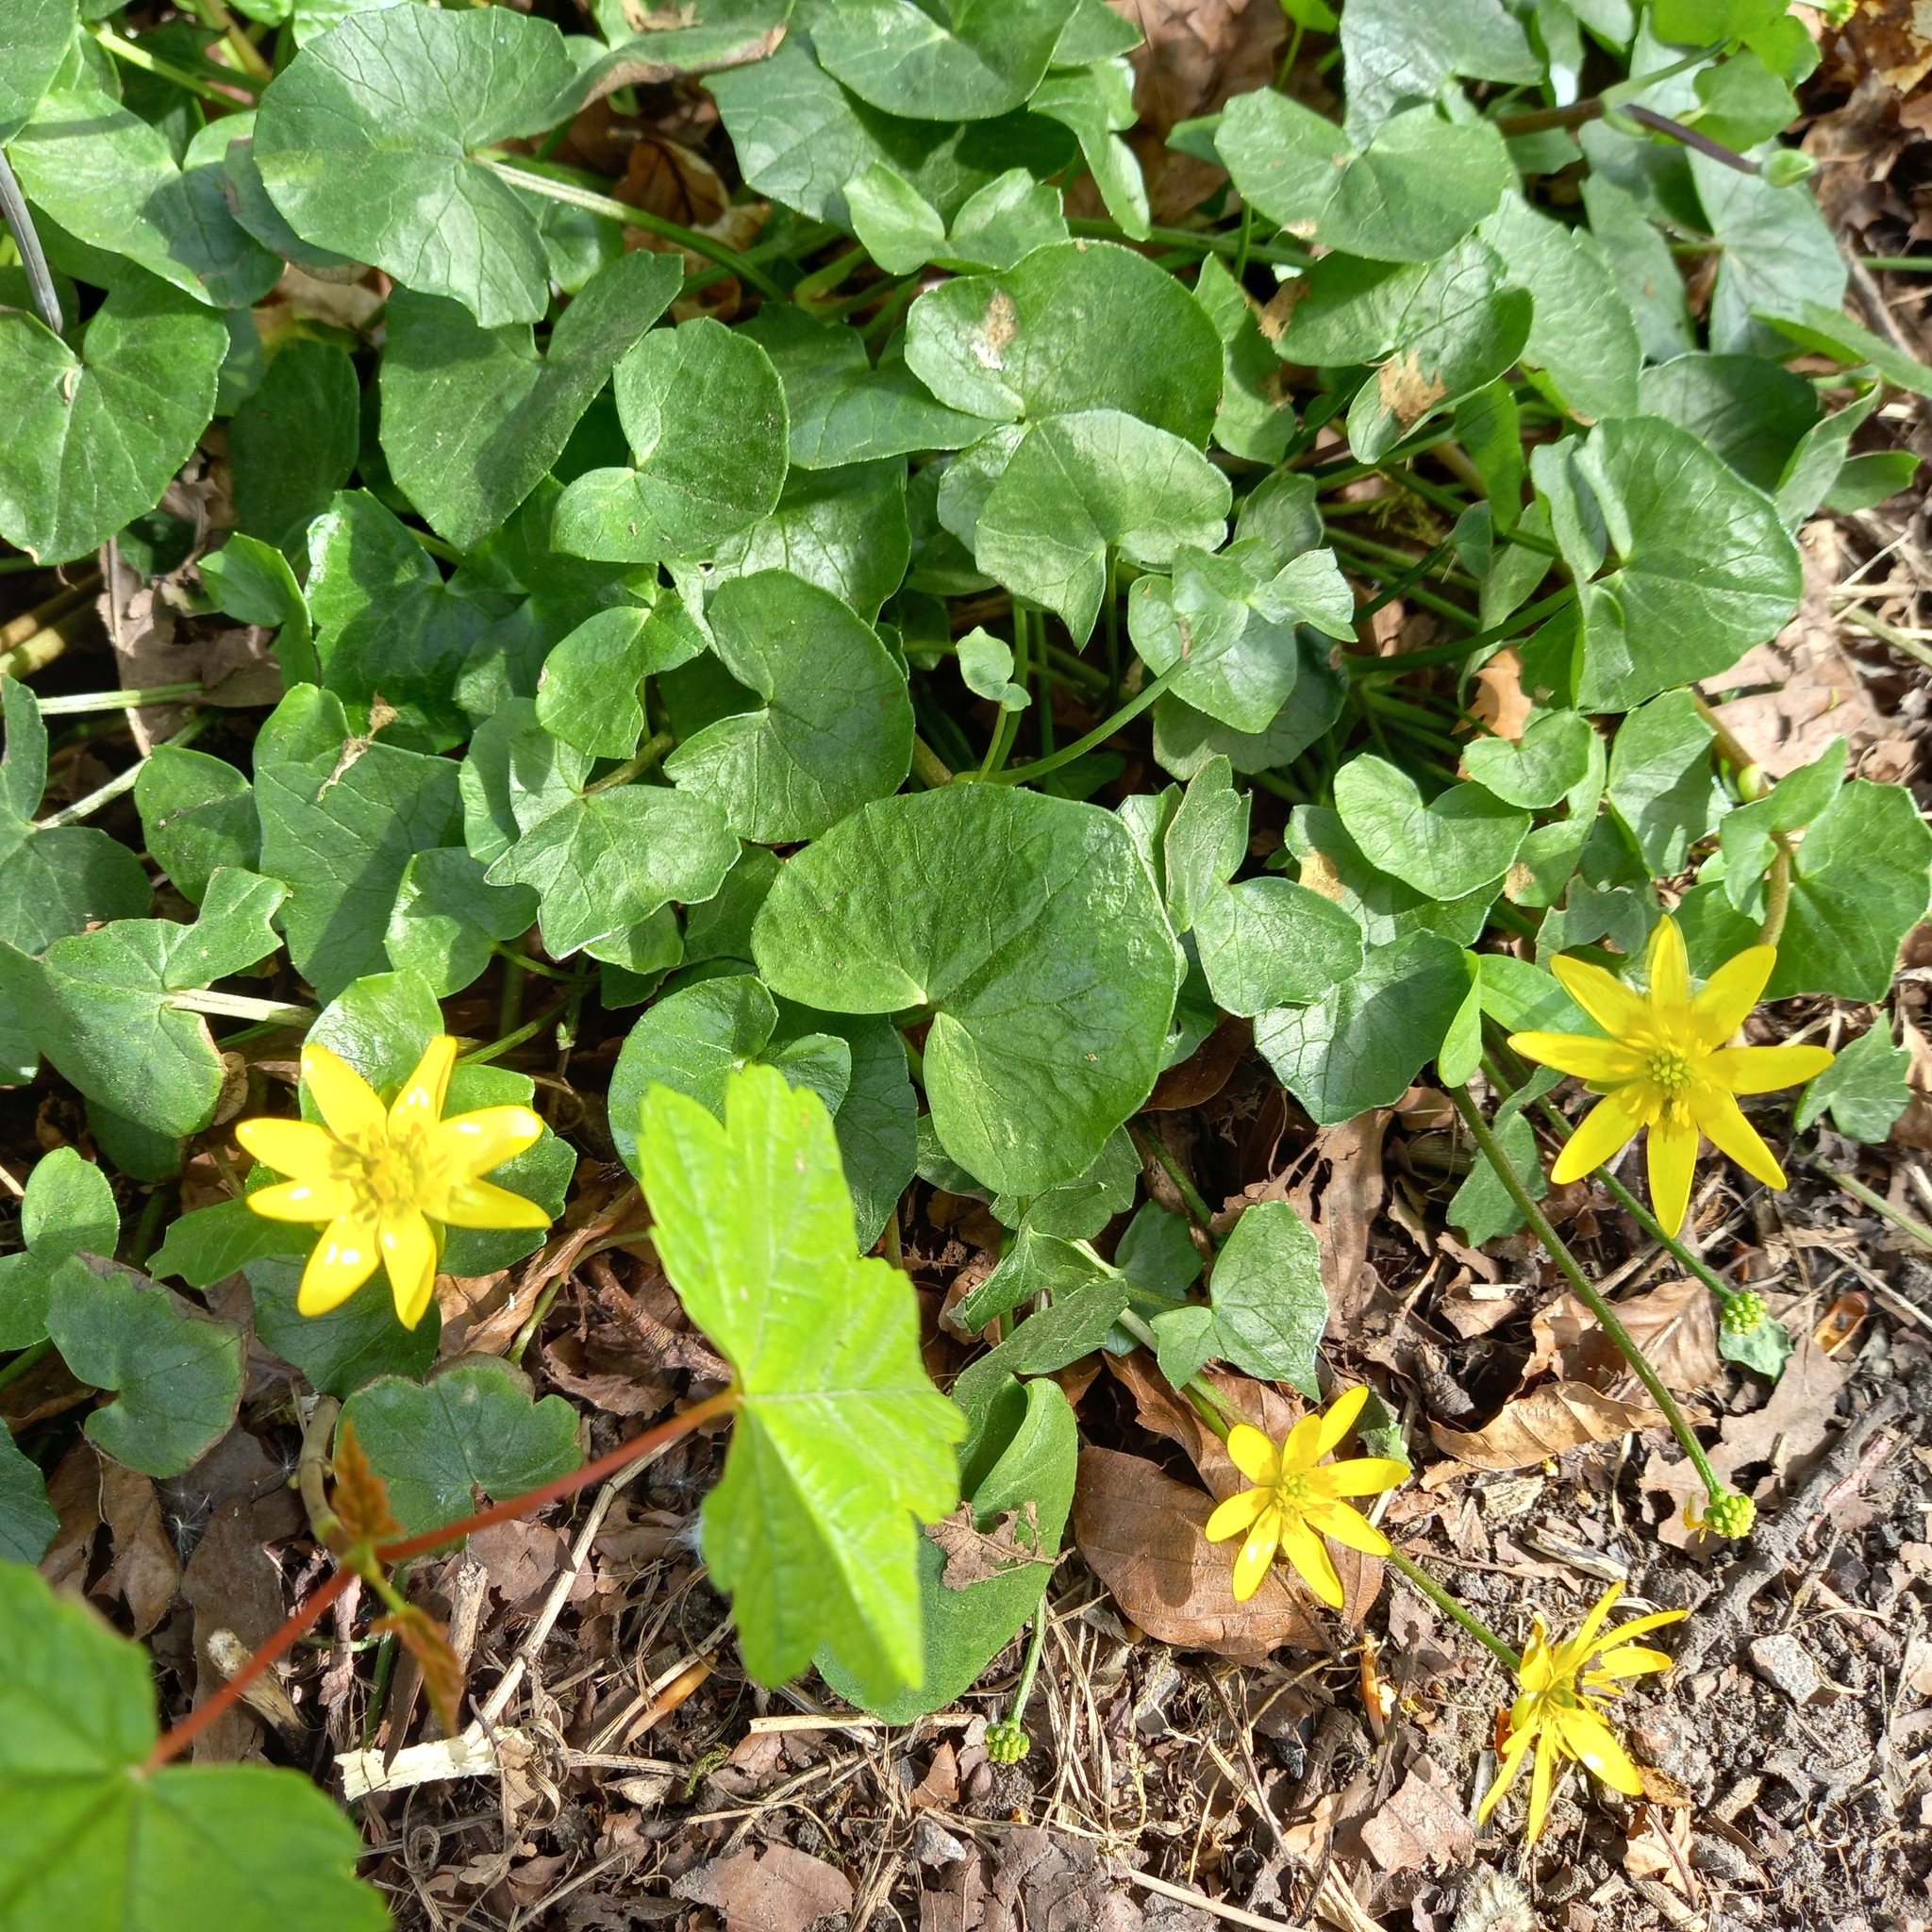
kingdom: Plantae
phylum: Tracheophyta
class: Magnoliopsida
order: Ranunculales
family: Ranunculaceae
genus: Ficaria
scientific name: Ficaria verna
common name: Lesser celandine
